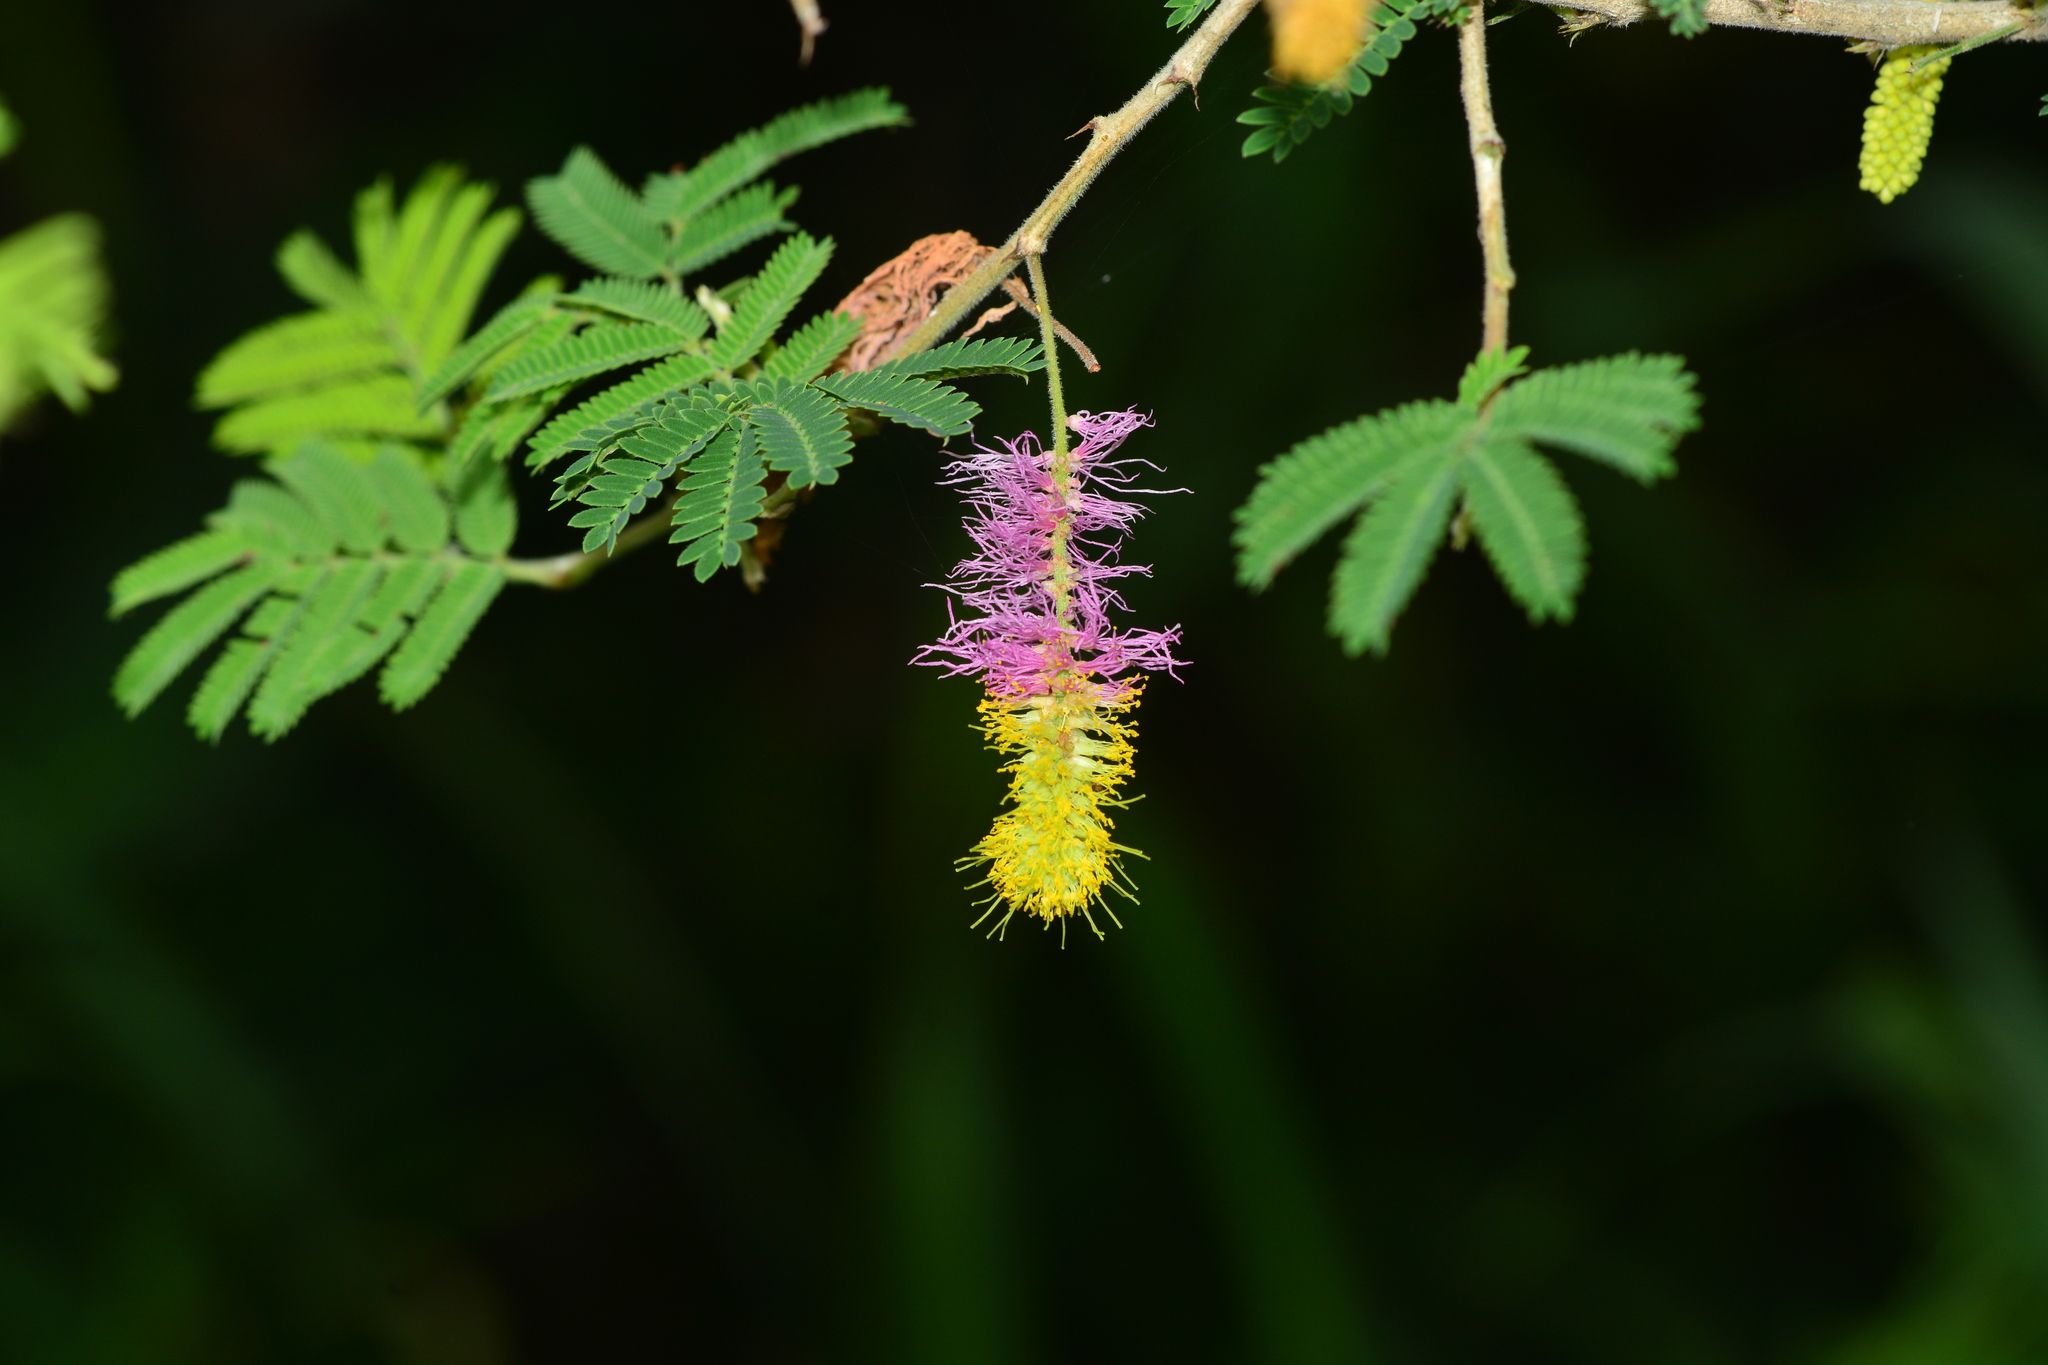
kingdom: Plantae
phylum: Tracheophyta
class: Magnoliopsida
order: Fabales
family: Fabaceae
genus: Dichrostachys
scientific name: Dichrostachys cinerea
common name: Sicklebush
